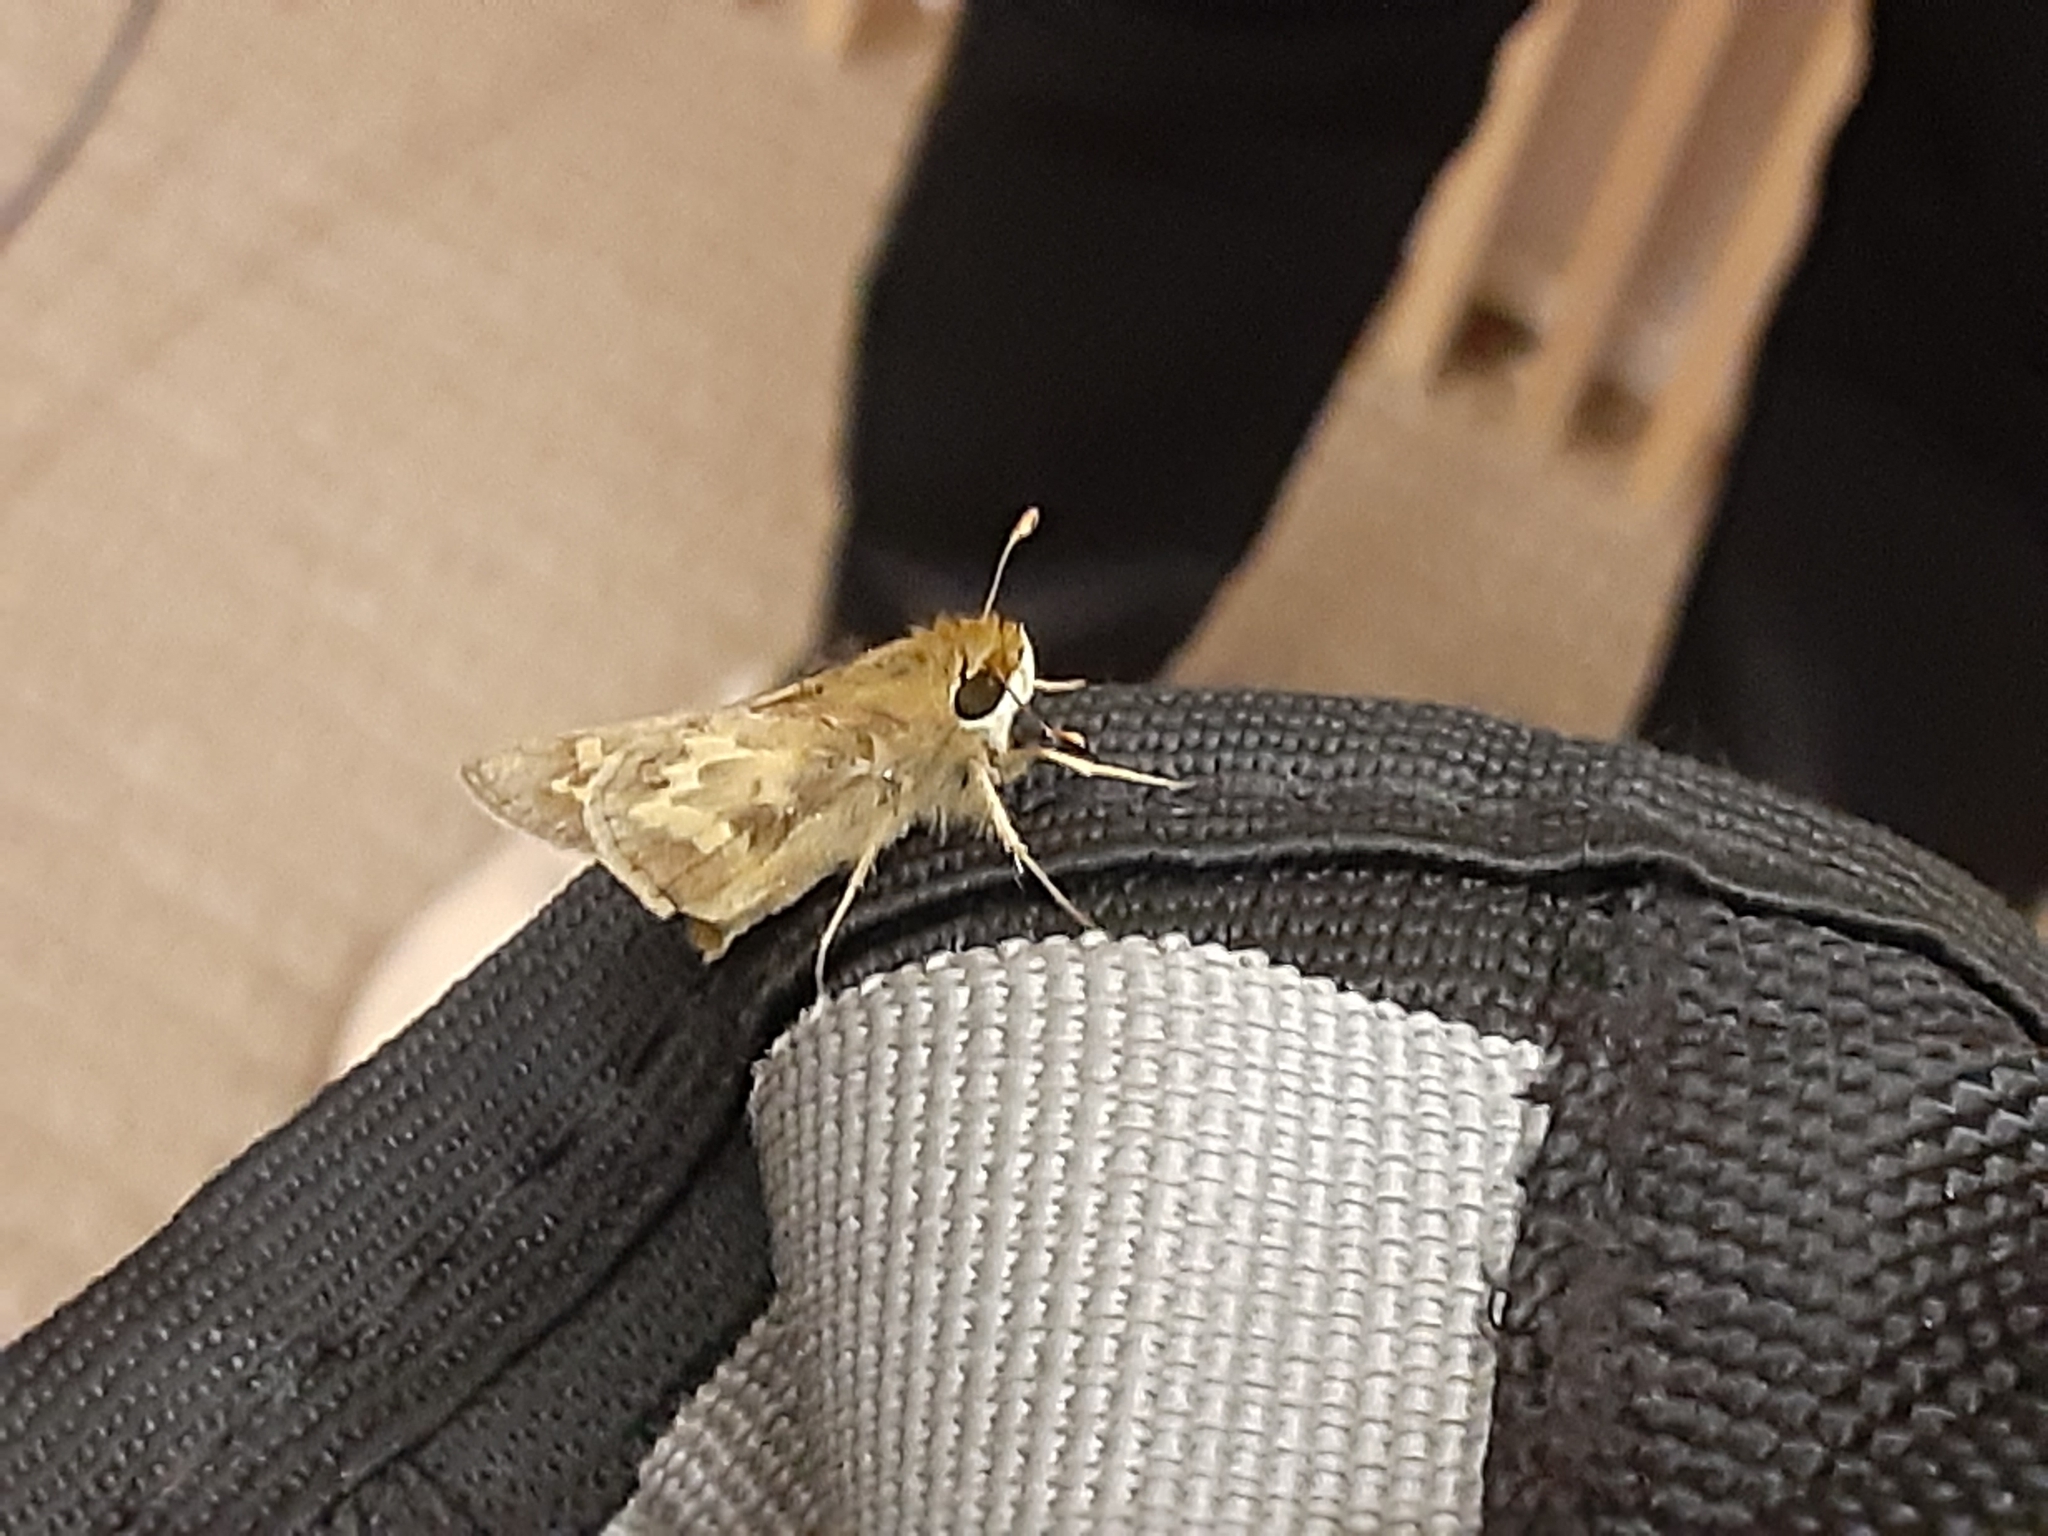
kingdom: Animalia
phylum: Arthropoda
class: Insecta
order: Lepidoptera
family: Hesperiidae
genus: Atalopedes
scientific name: Atalopedes
